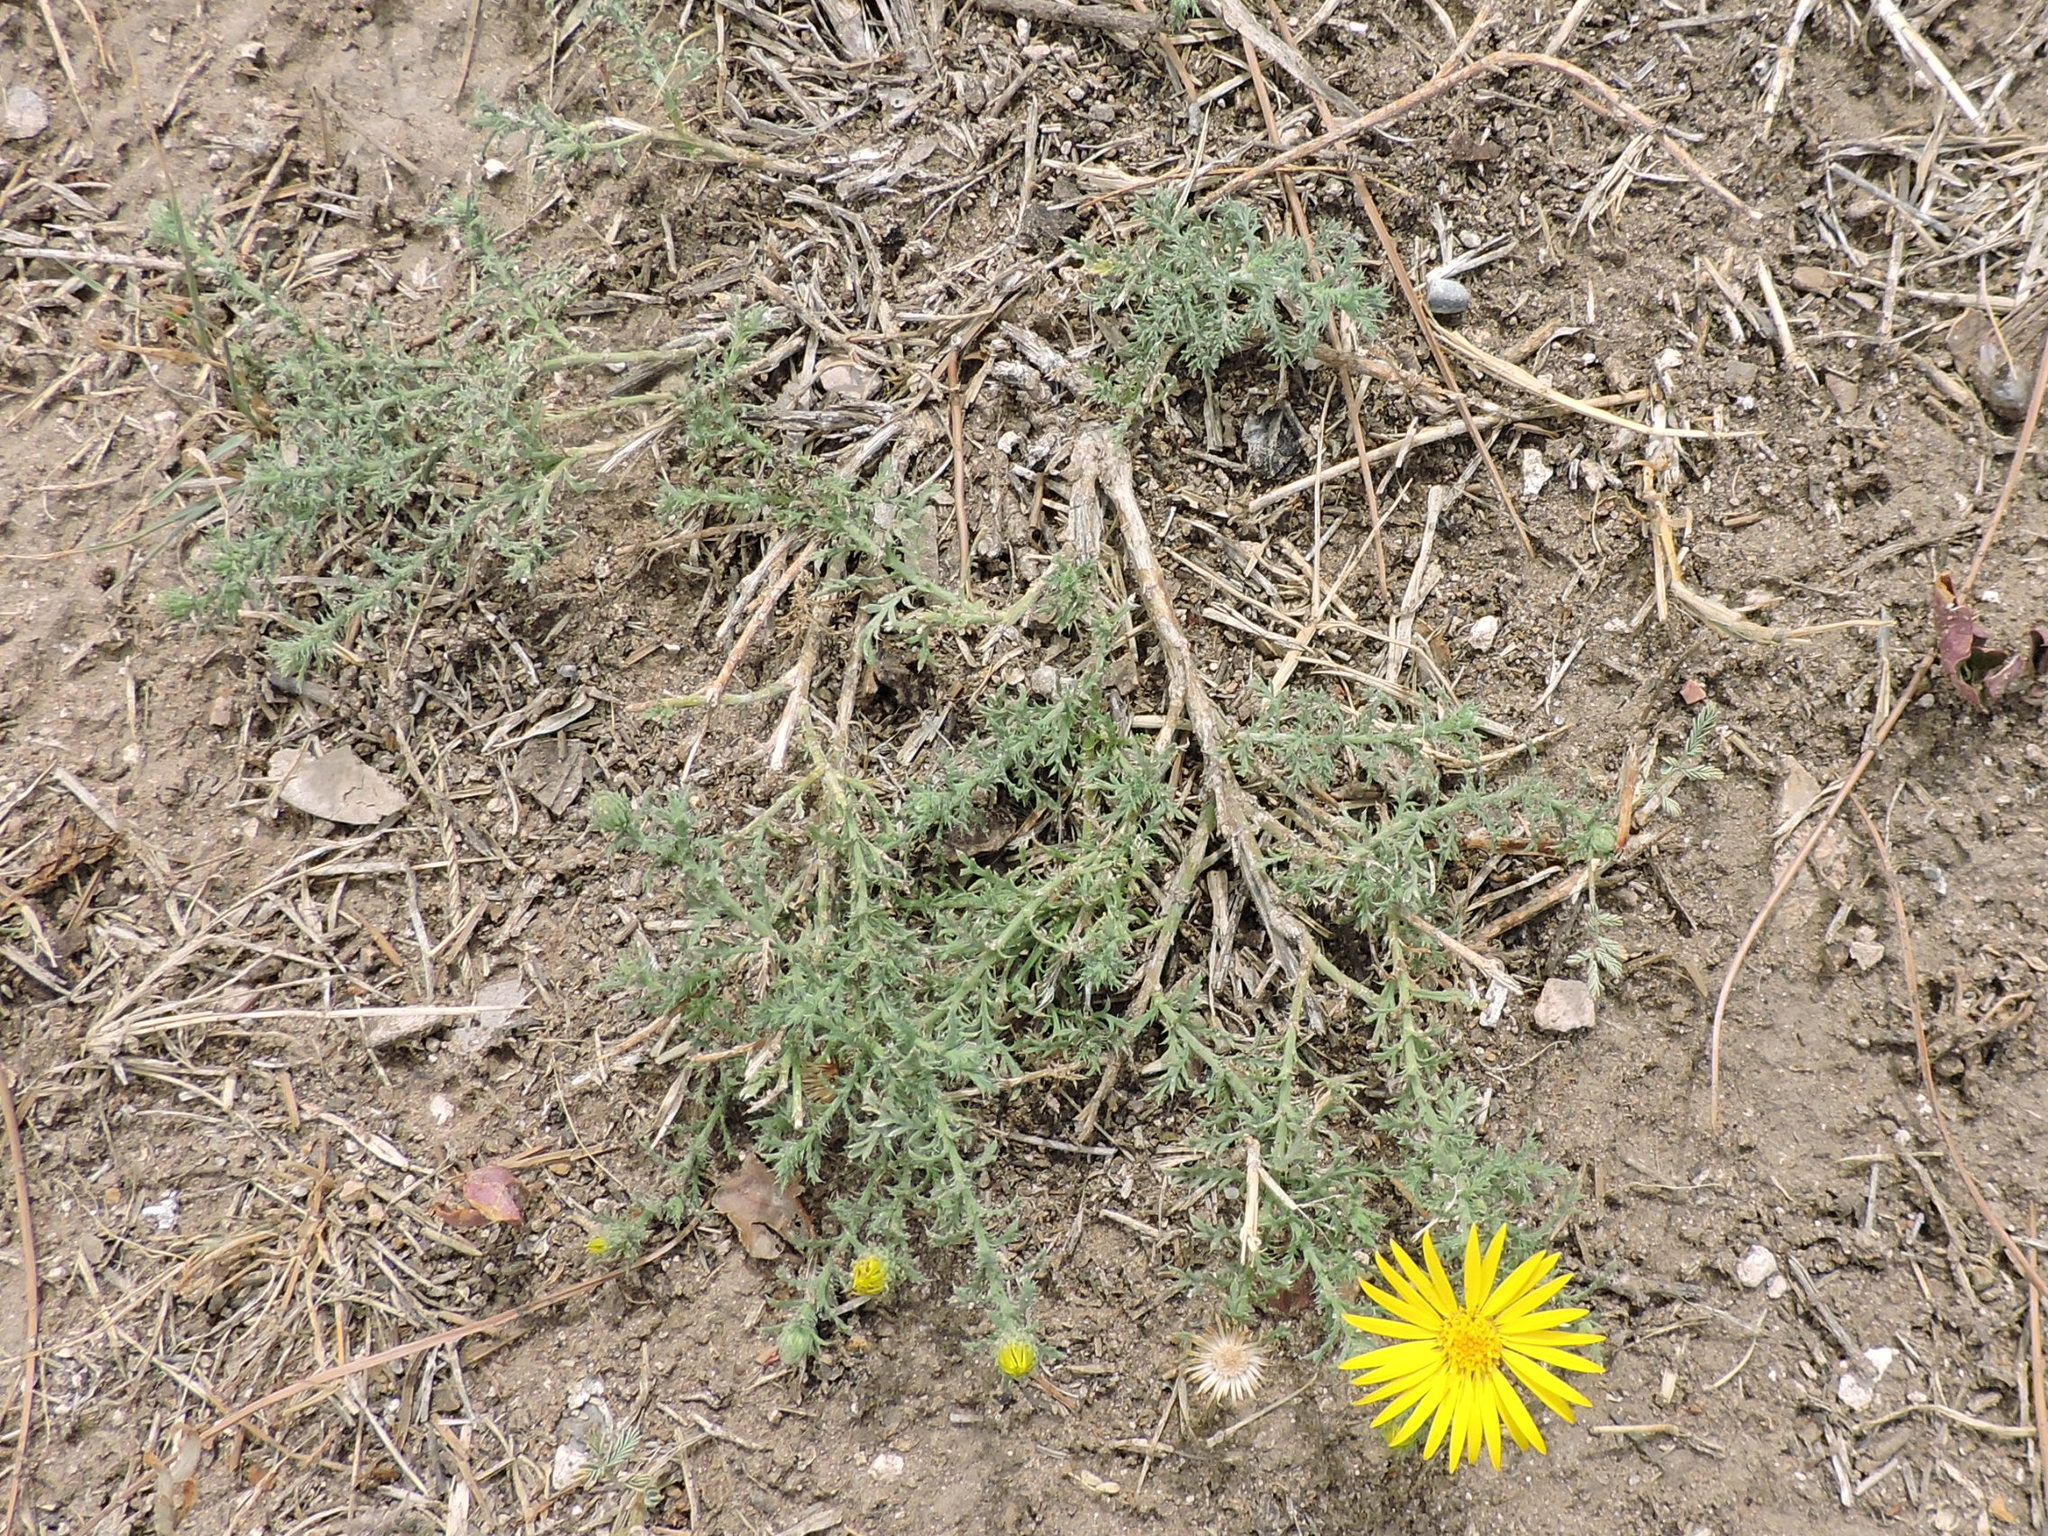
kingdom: Plantae
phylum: Tracheophyta
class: Magnoliopsida
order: Asterales
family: Asteraceae
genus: Xanthisma
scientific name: Xanthisma spinulosum
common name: Spiny goldenweed
